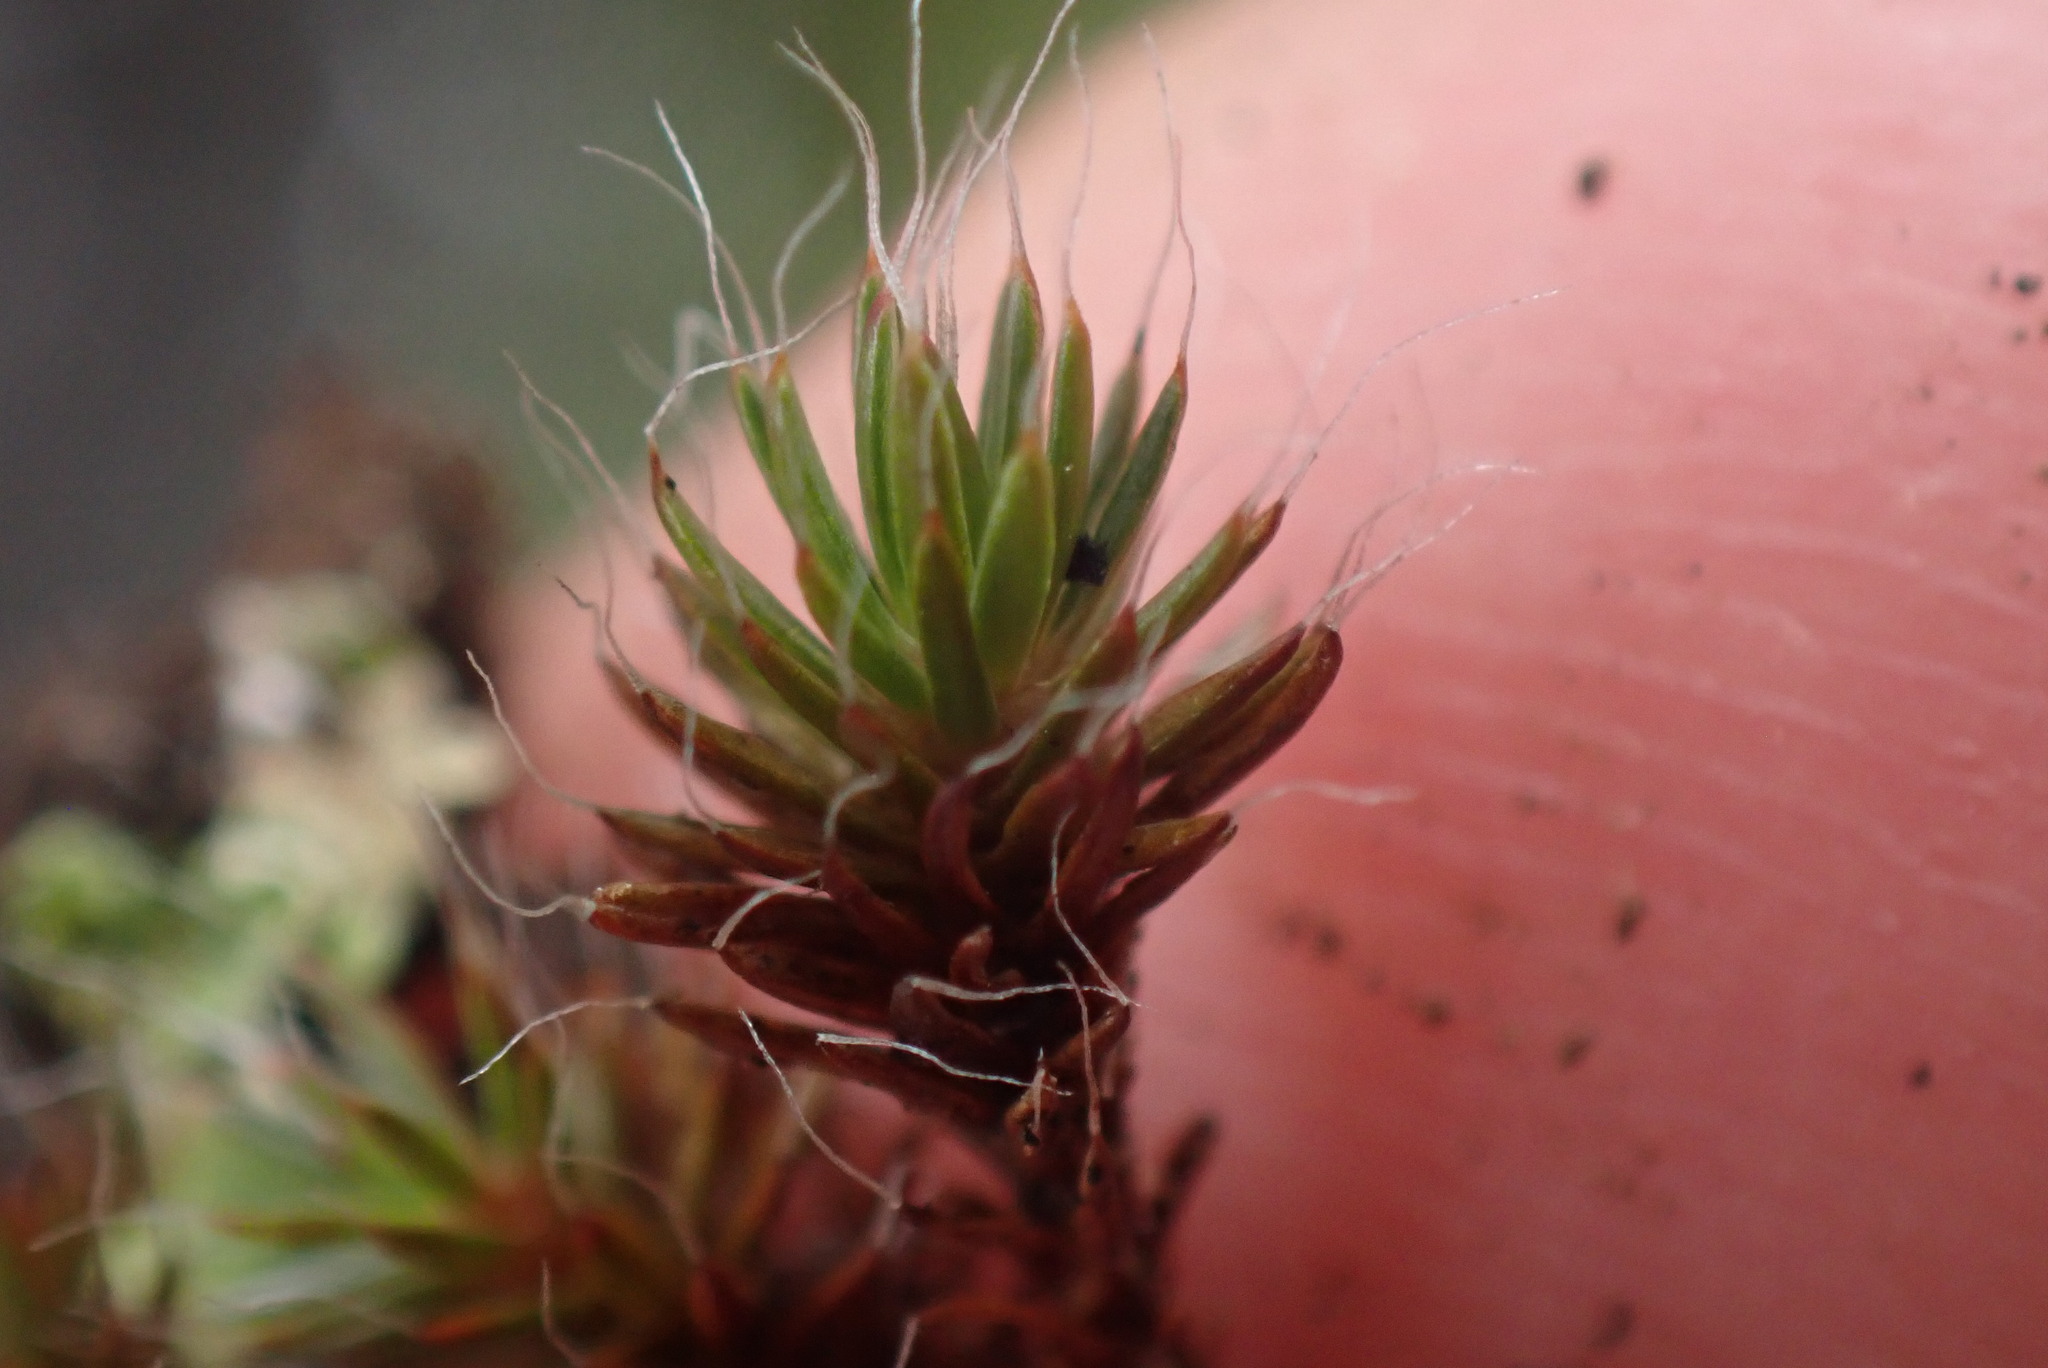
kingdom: Plantae
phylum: Bryophyta
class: Polytrichopsida
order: Polytrichales
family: Polytrichaceae
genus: Polytrichum
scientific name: Polytrichum piliferum
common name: Bristly haircap
